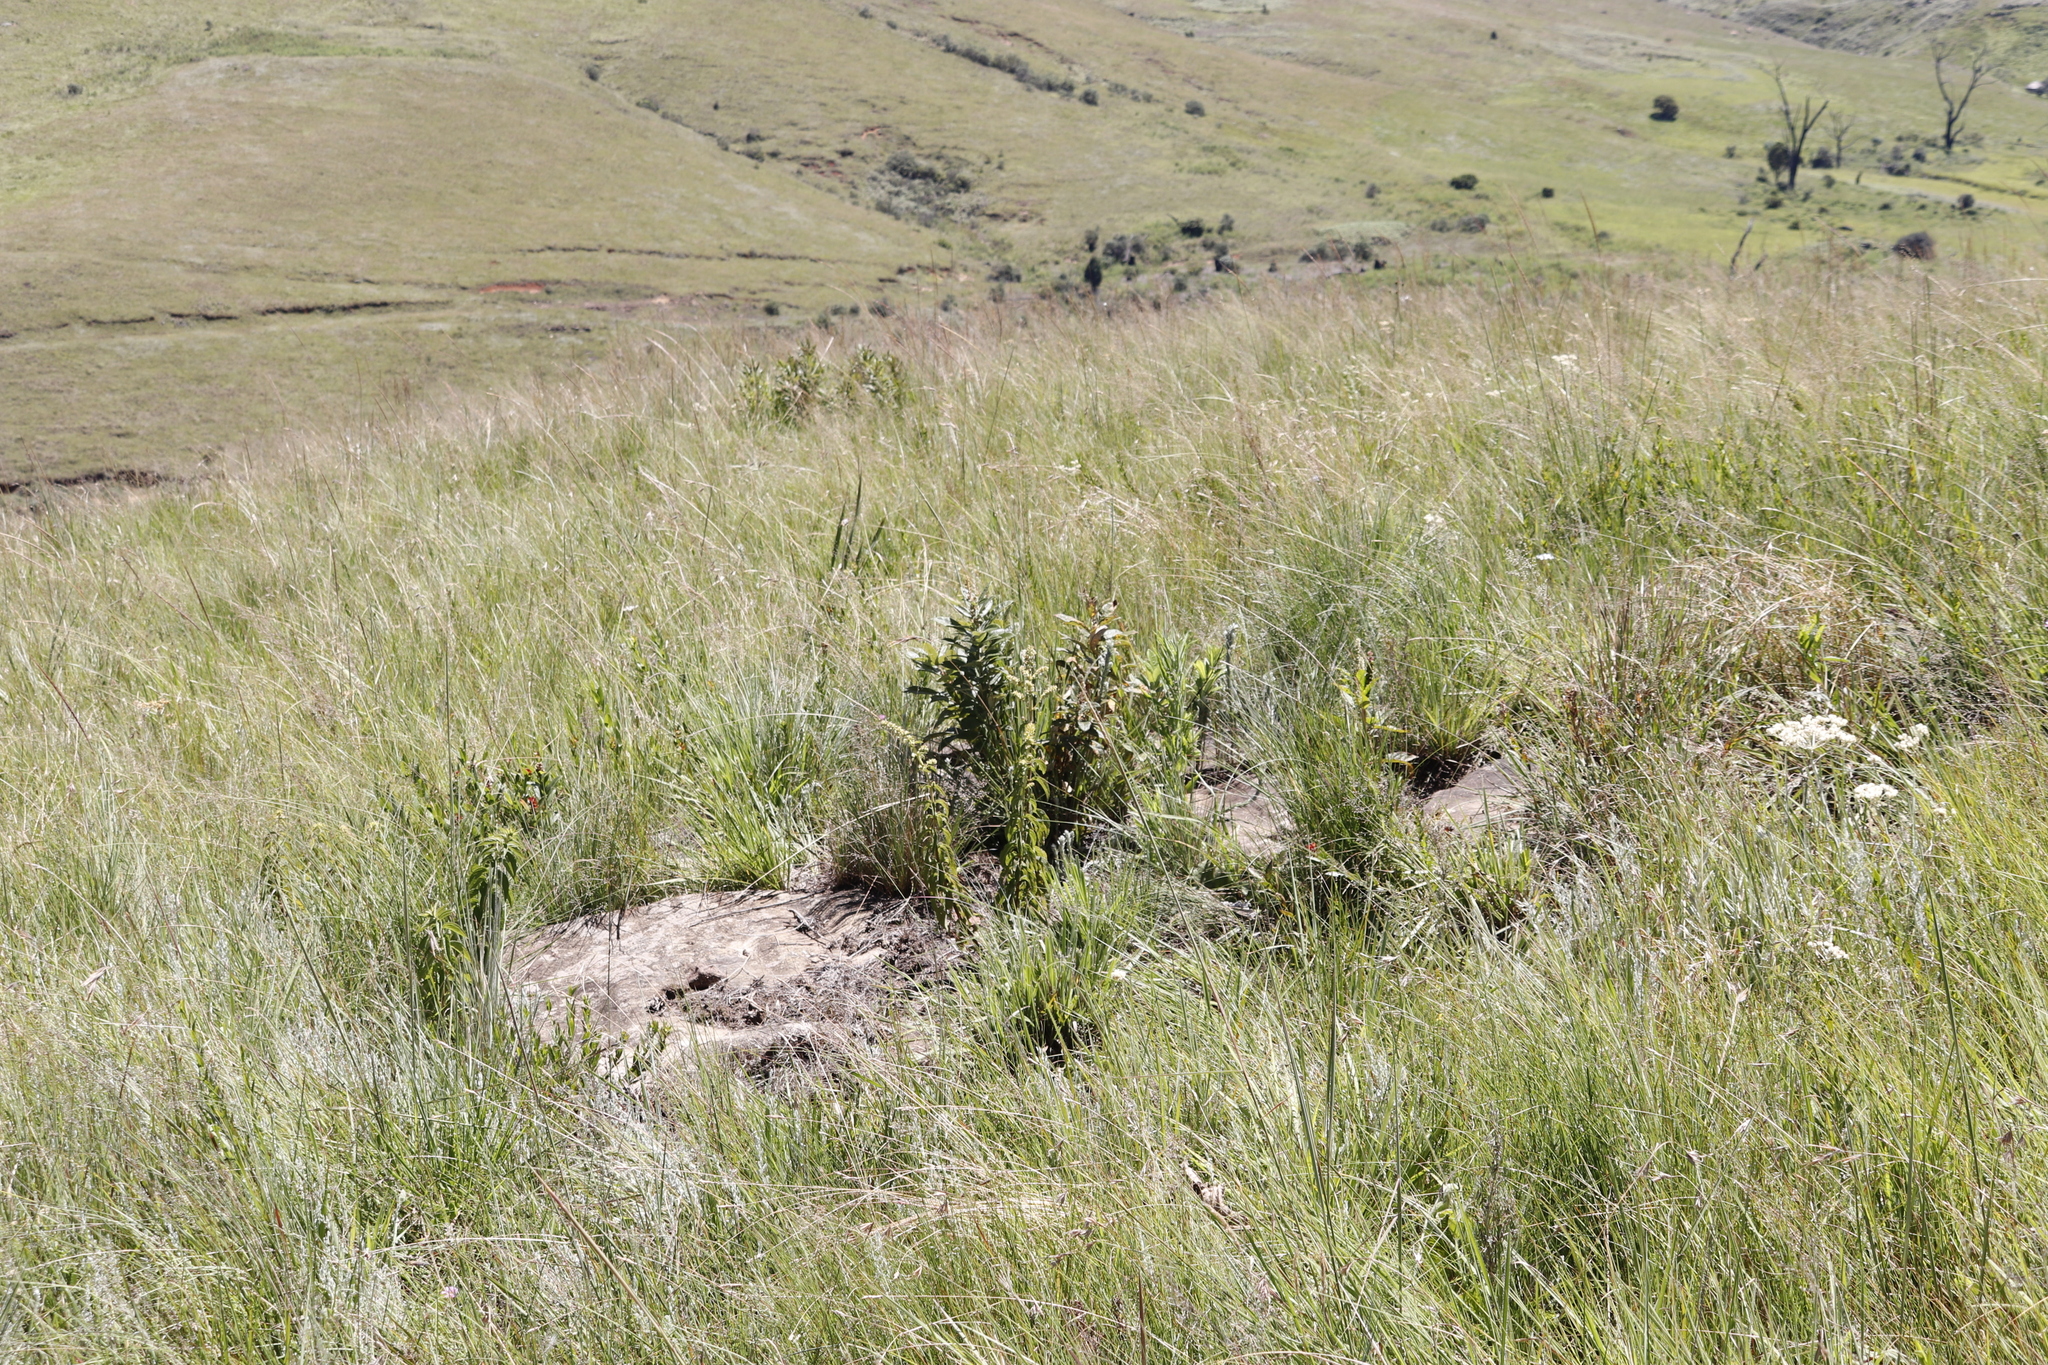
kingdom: Plantae
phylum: Tracheophyta
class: Magnoliopsida
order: Sapindales
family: Anacardiaceae
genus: Searsia
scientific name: Searsia discolor
